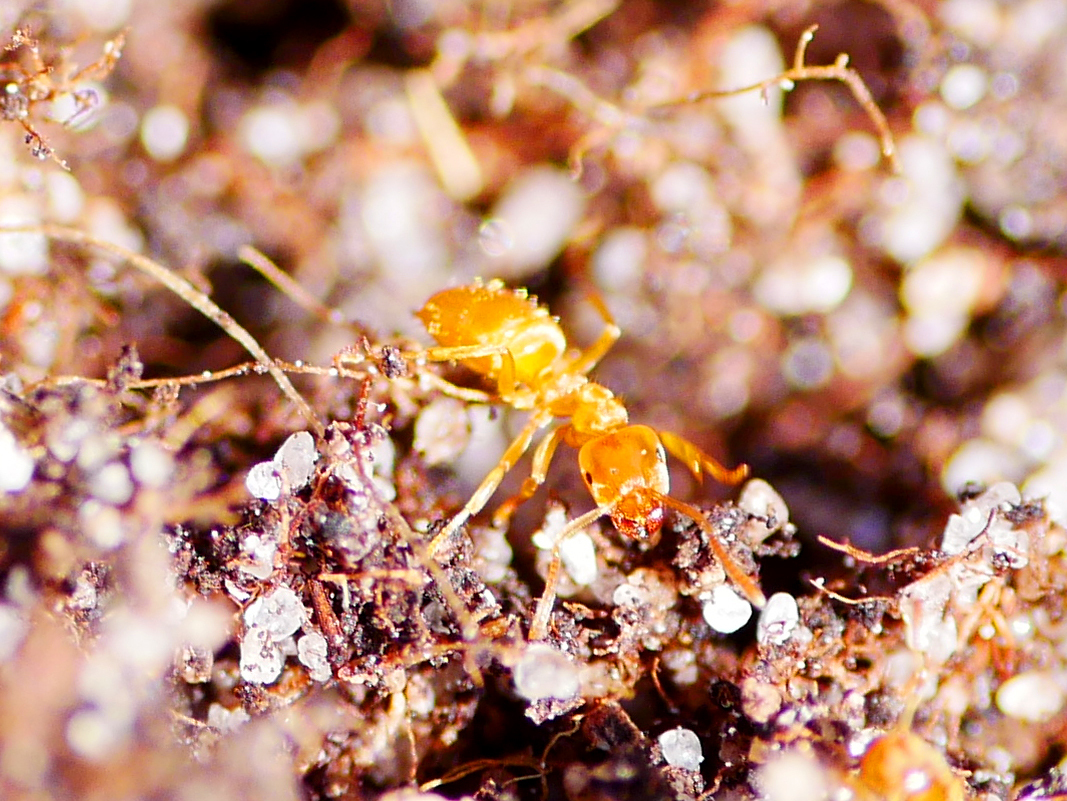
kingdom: Animalia
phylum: Arthropoda
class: Insecta
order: Hymenoptera
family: Formicidae
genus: Lasius
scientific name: Lasius flavus
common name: Blond field ant
